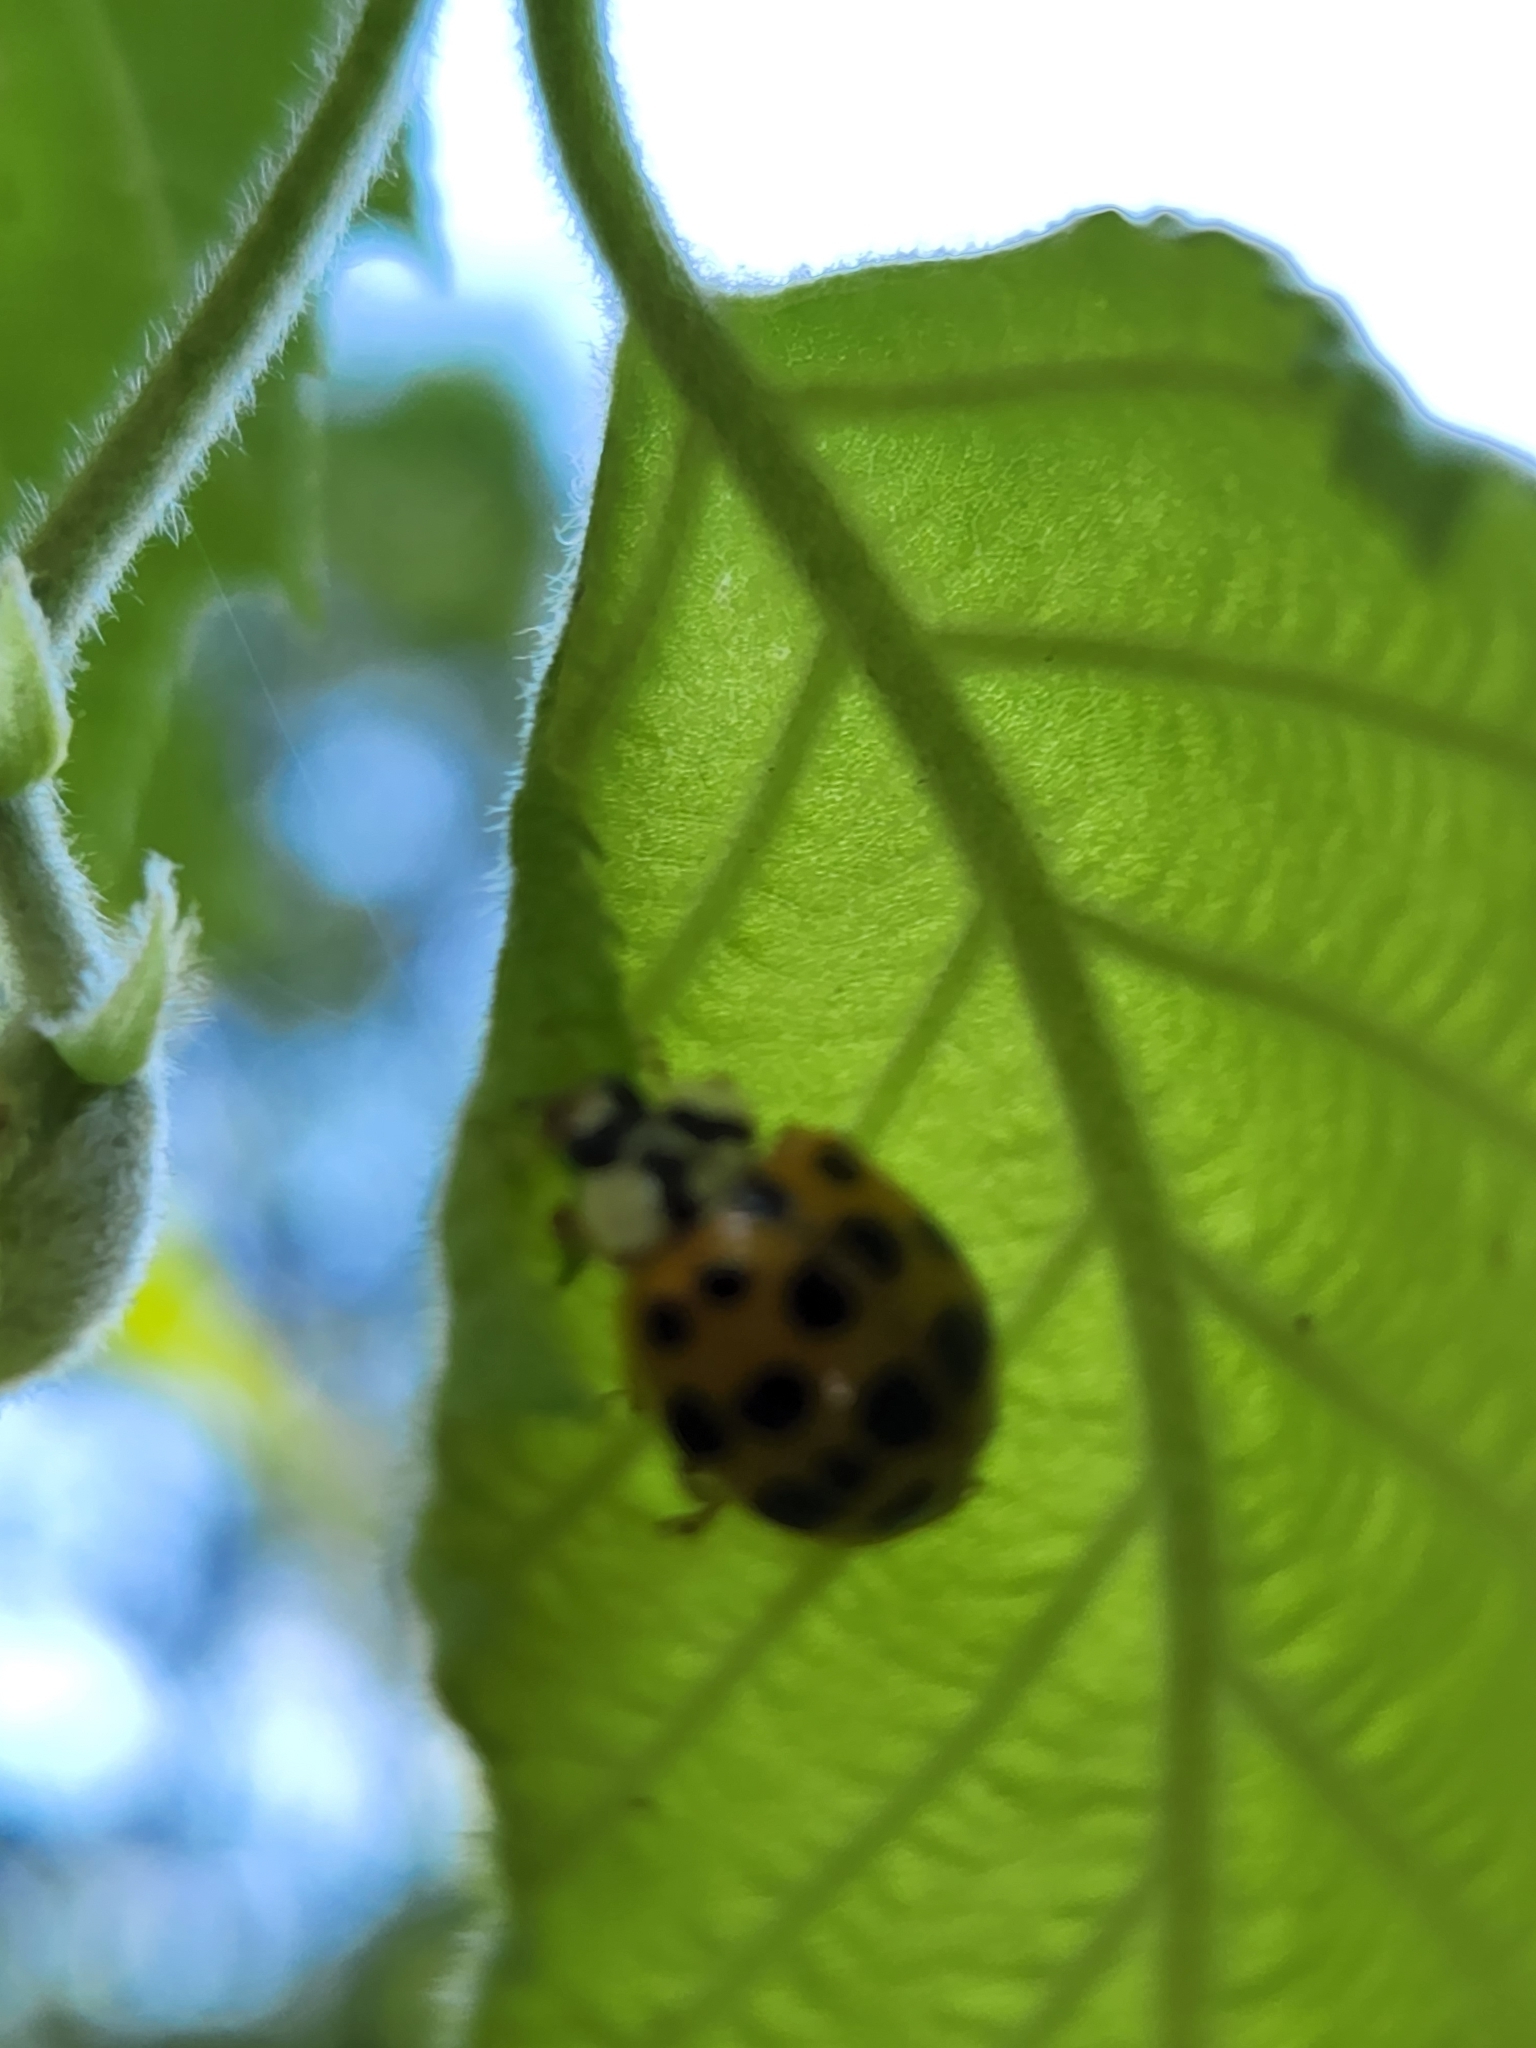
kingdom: Animalia
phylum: Arthropoda
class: Insecta
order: Coleoptera
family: Coccinellidae
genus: Harmonia
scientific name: Harmonia axyridis
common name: Harlequin ladybird
